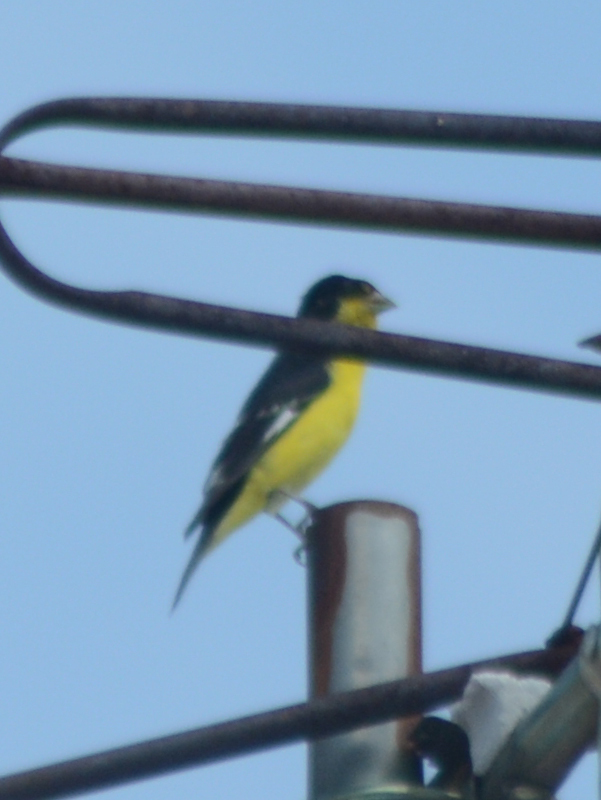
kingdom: Animalia
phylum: Chordata
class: Aves
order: Passeriformes
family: Fringillidae
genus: Spinus
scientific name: Spinus psaltria
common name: Lesser goldfinch
